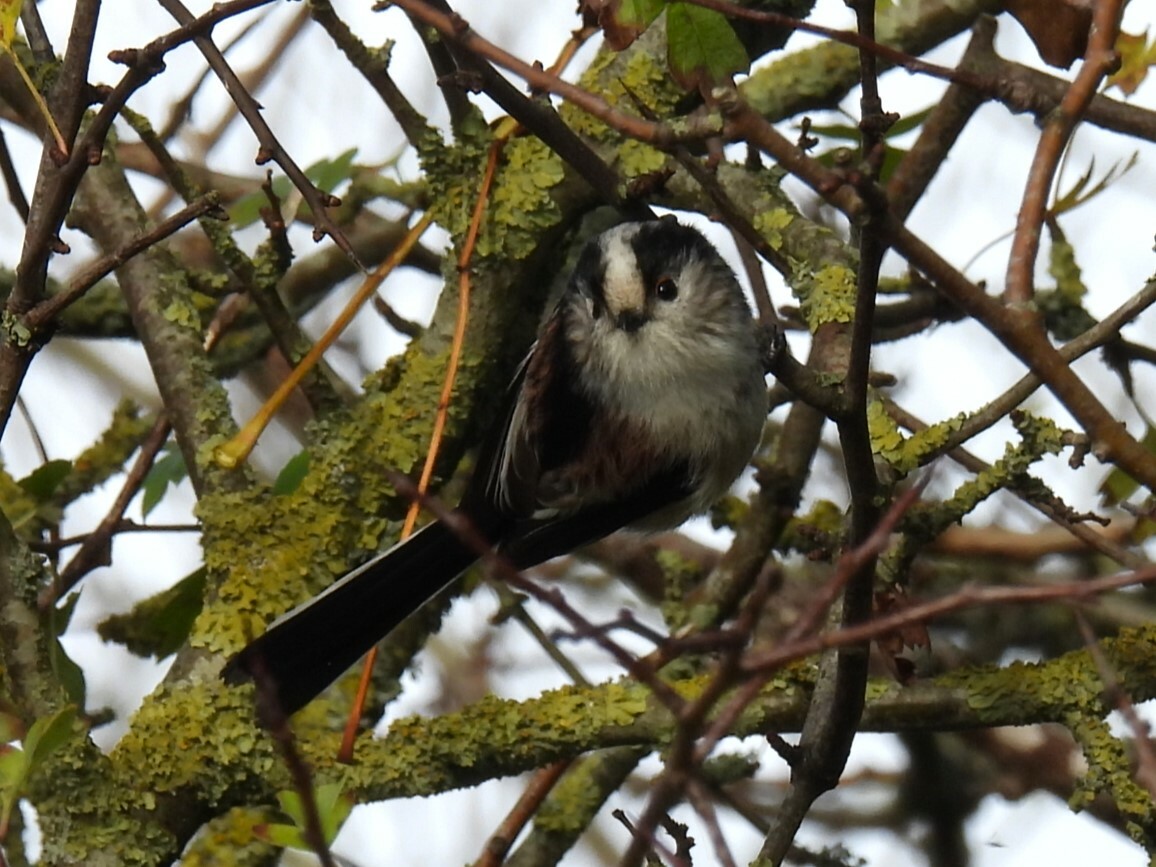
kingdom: Animalia
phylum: Chordata
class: Aves
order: Passeriformes
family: Aegithalidae
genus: Aegithalos
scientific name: Aegithalos caudatus
